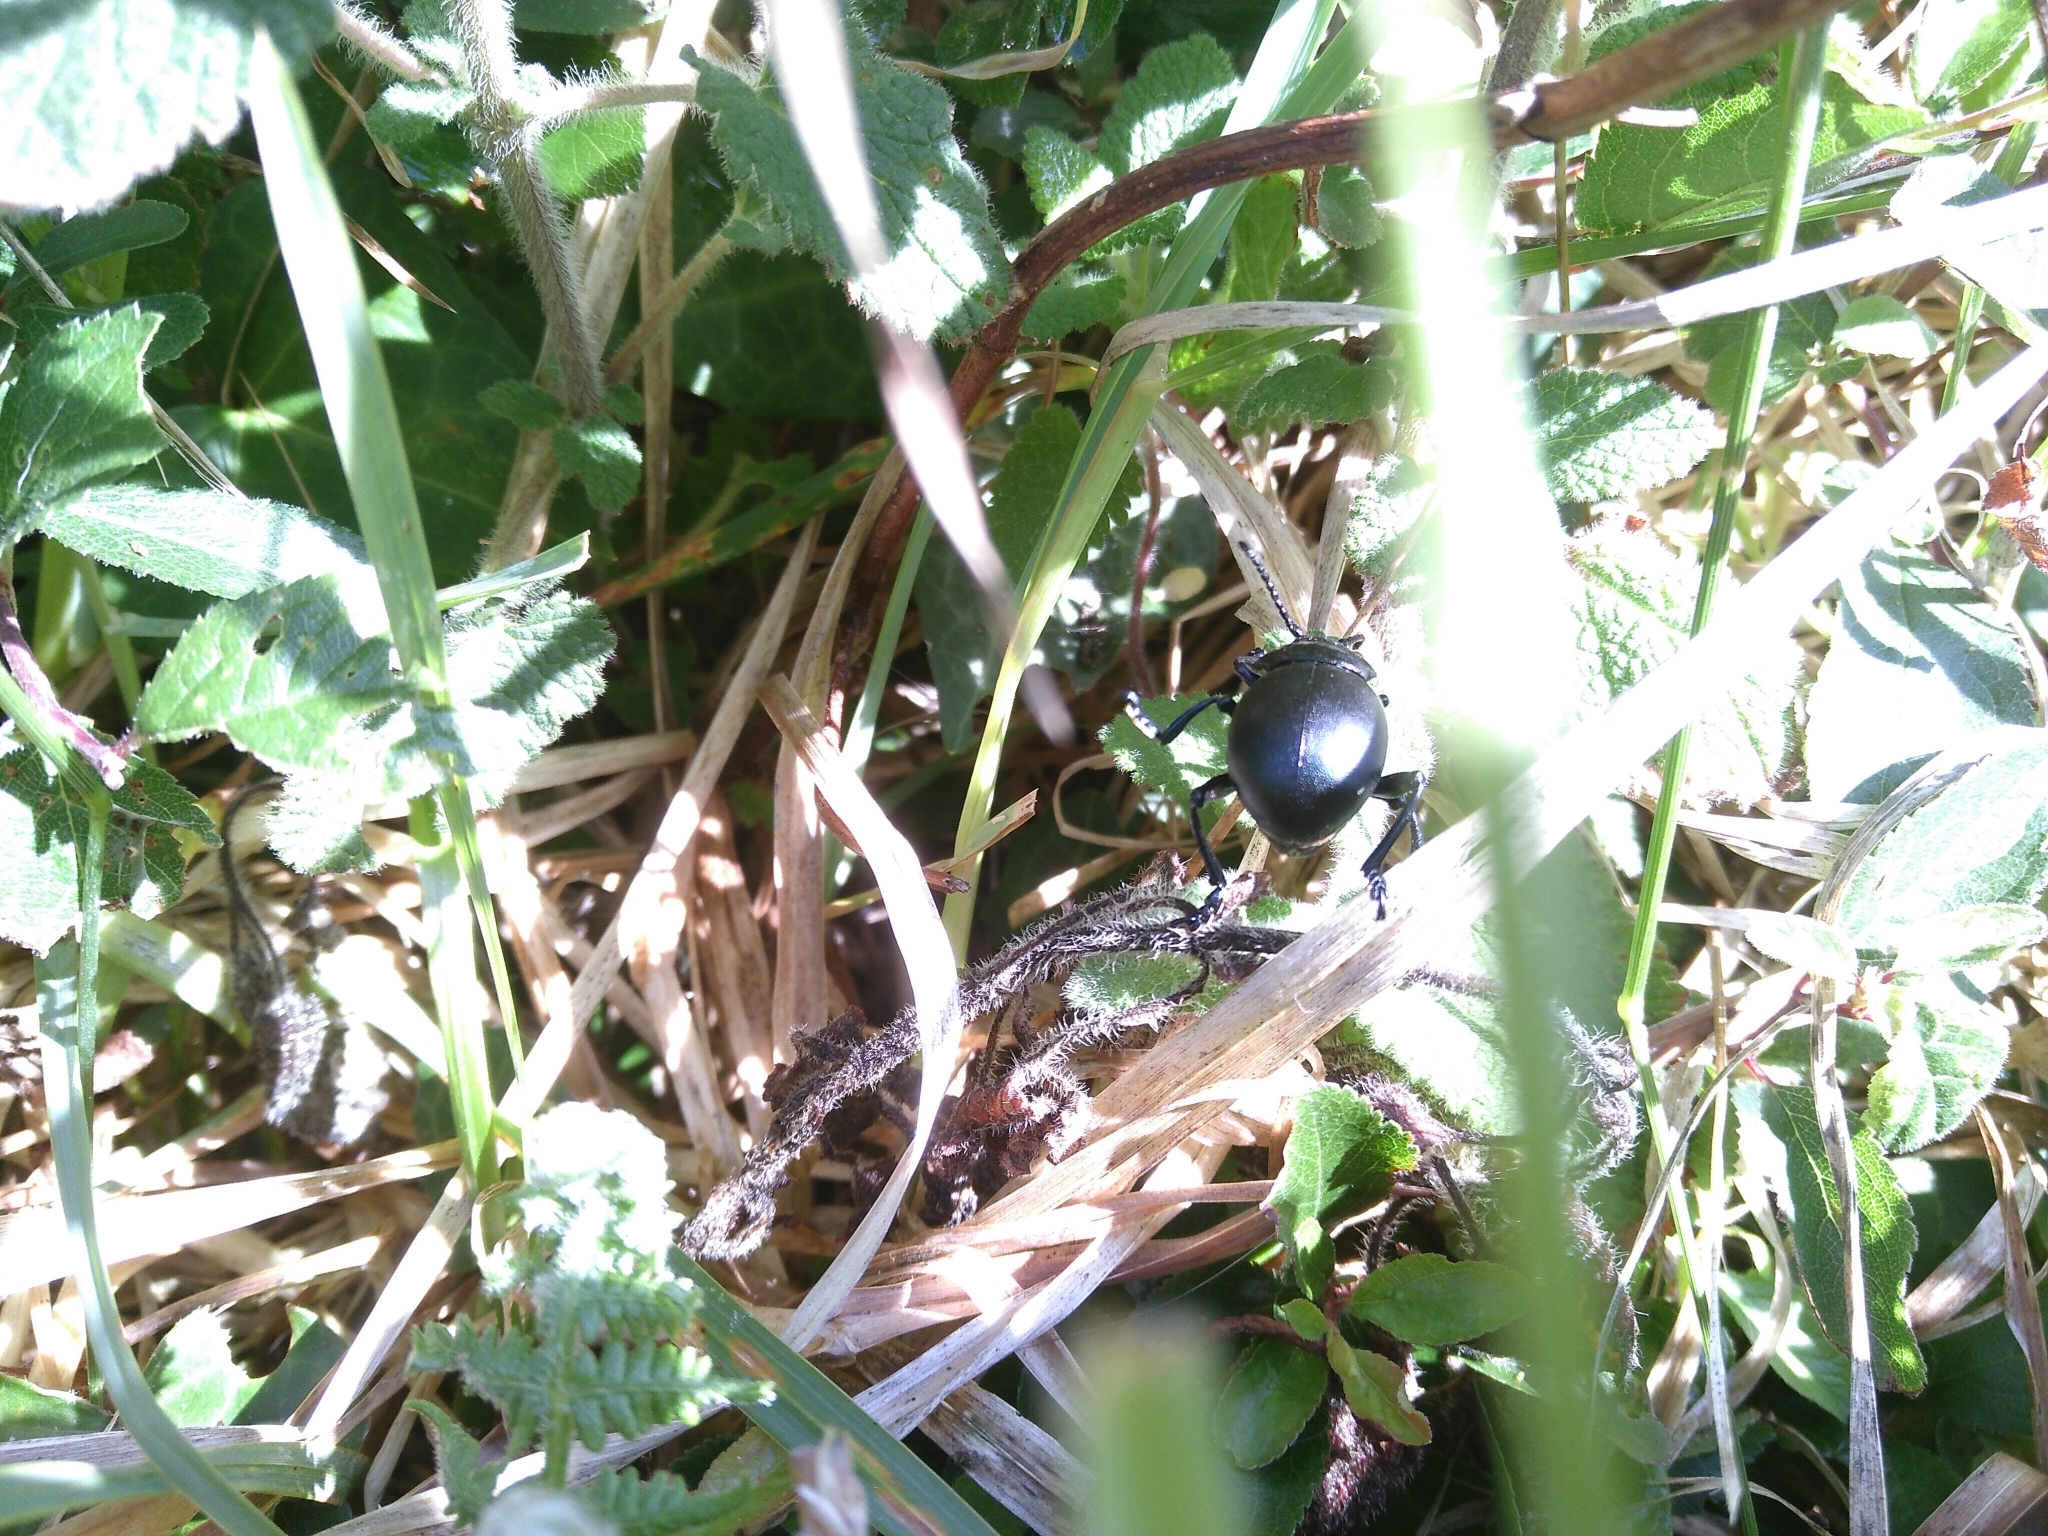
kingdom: Animalia
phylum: Arthropoda
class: Insecta
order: Coleoptera
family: Chrysomelidae
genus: Timarcha
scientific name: Timarcha tenebricosa
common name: Bloody-nosed beetle
